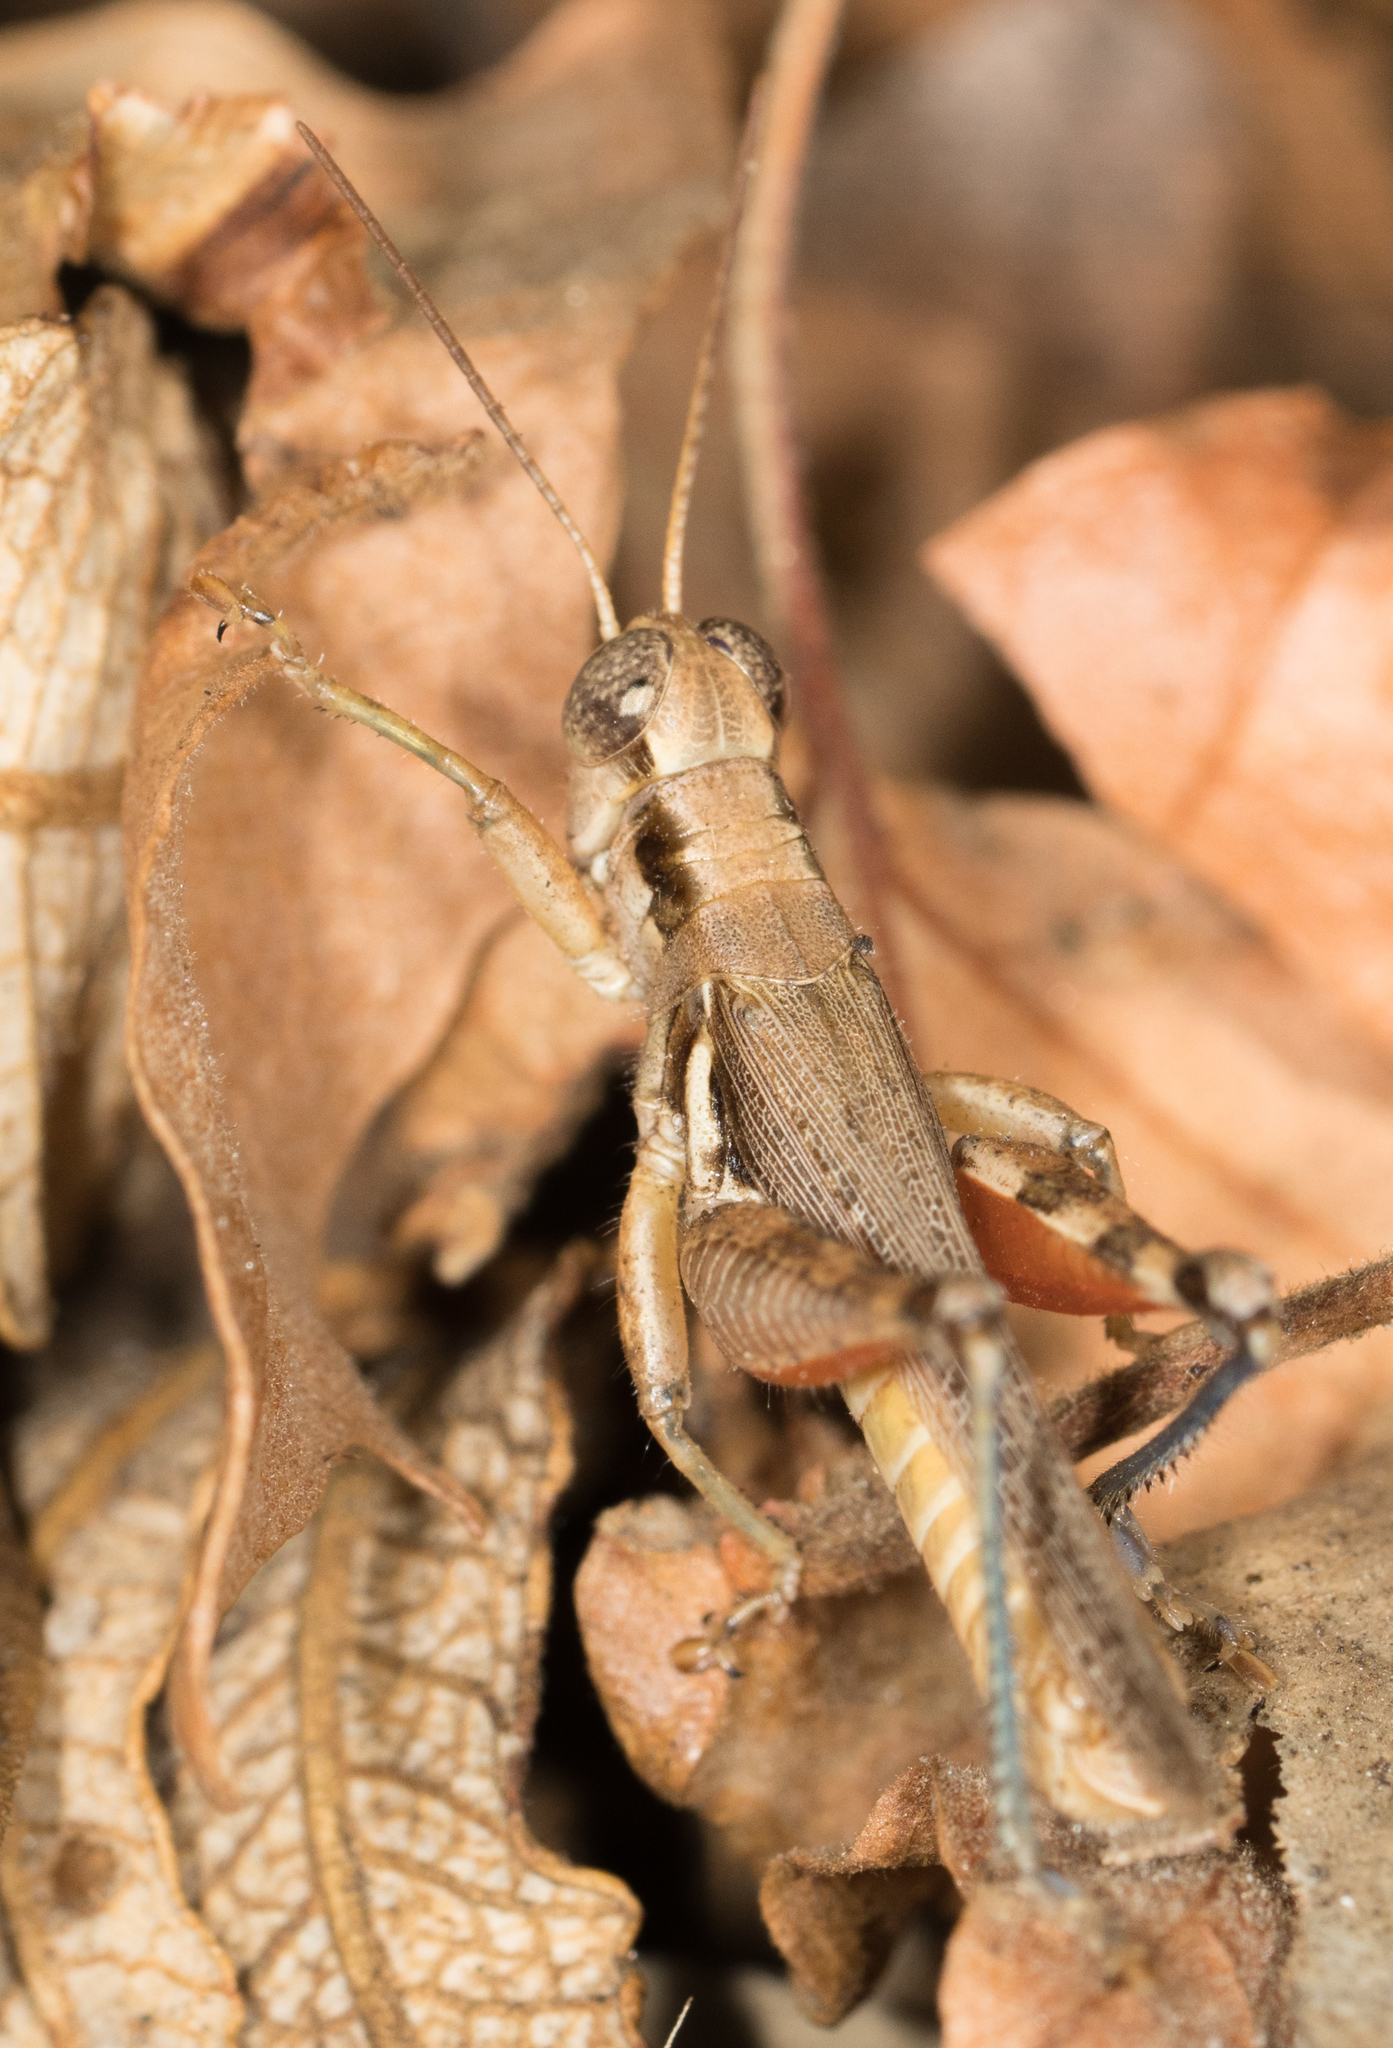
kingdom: Animalia
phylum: Arthropoda
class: Insecta
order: Orthoptera
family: Acrididae
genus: Melanoplus
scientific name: Melanoplus cinereus
